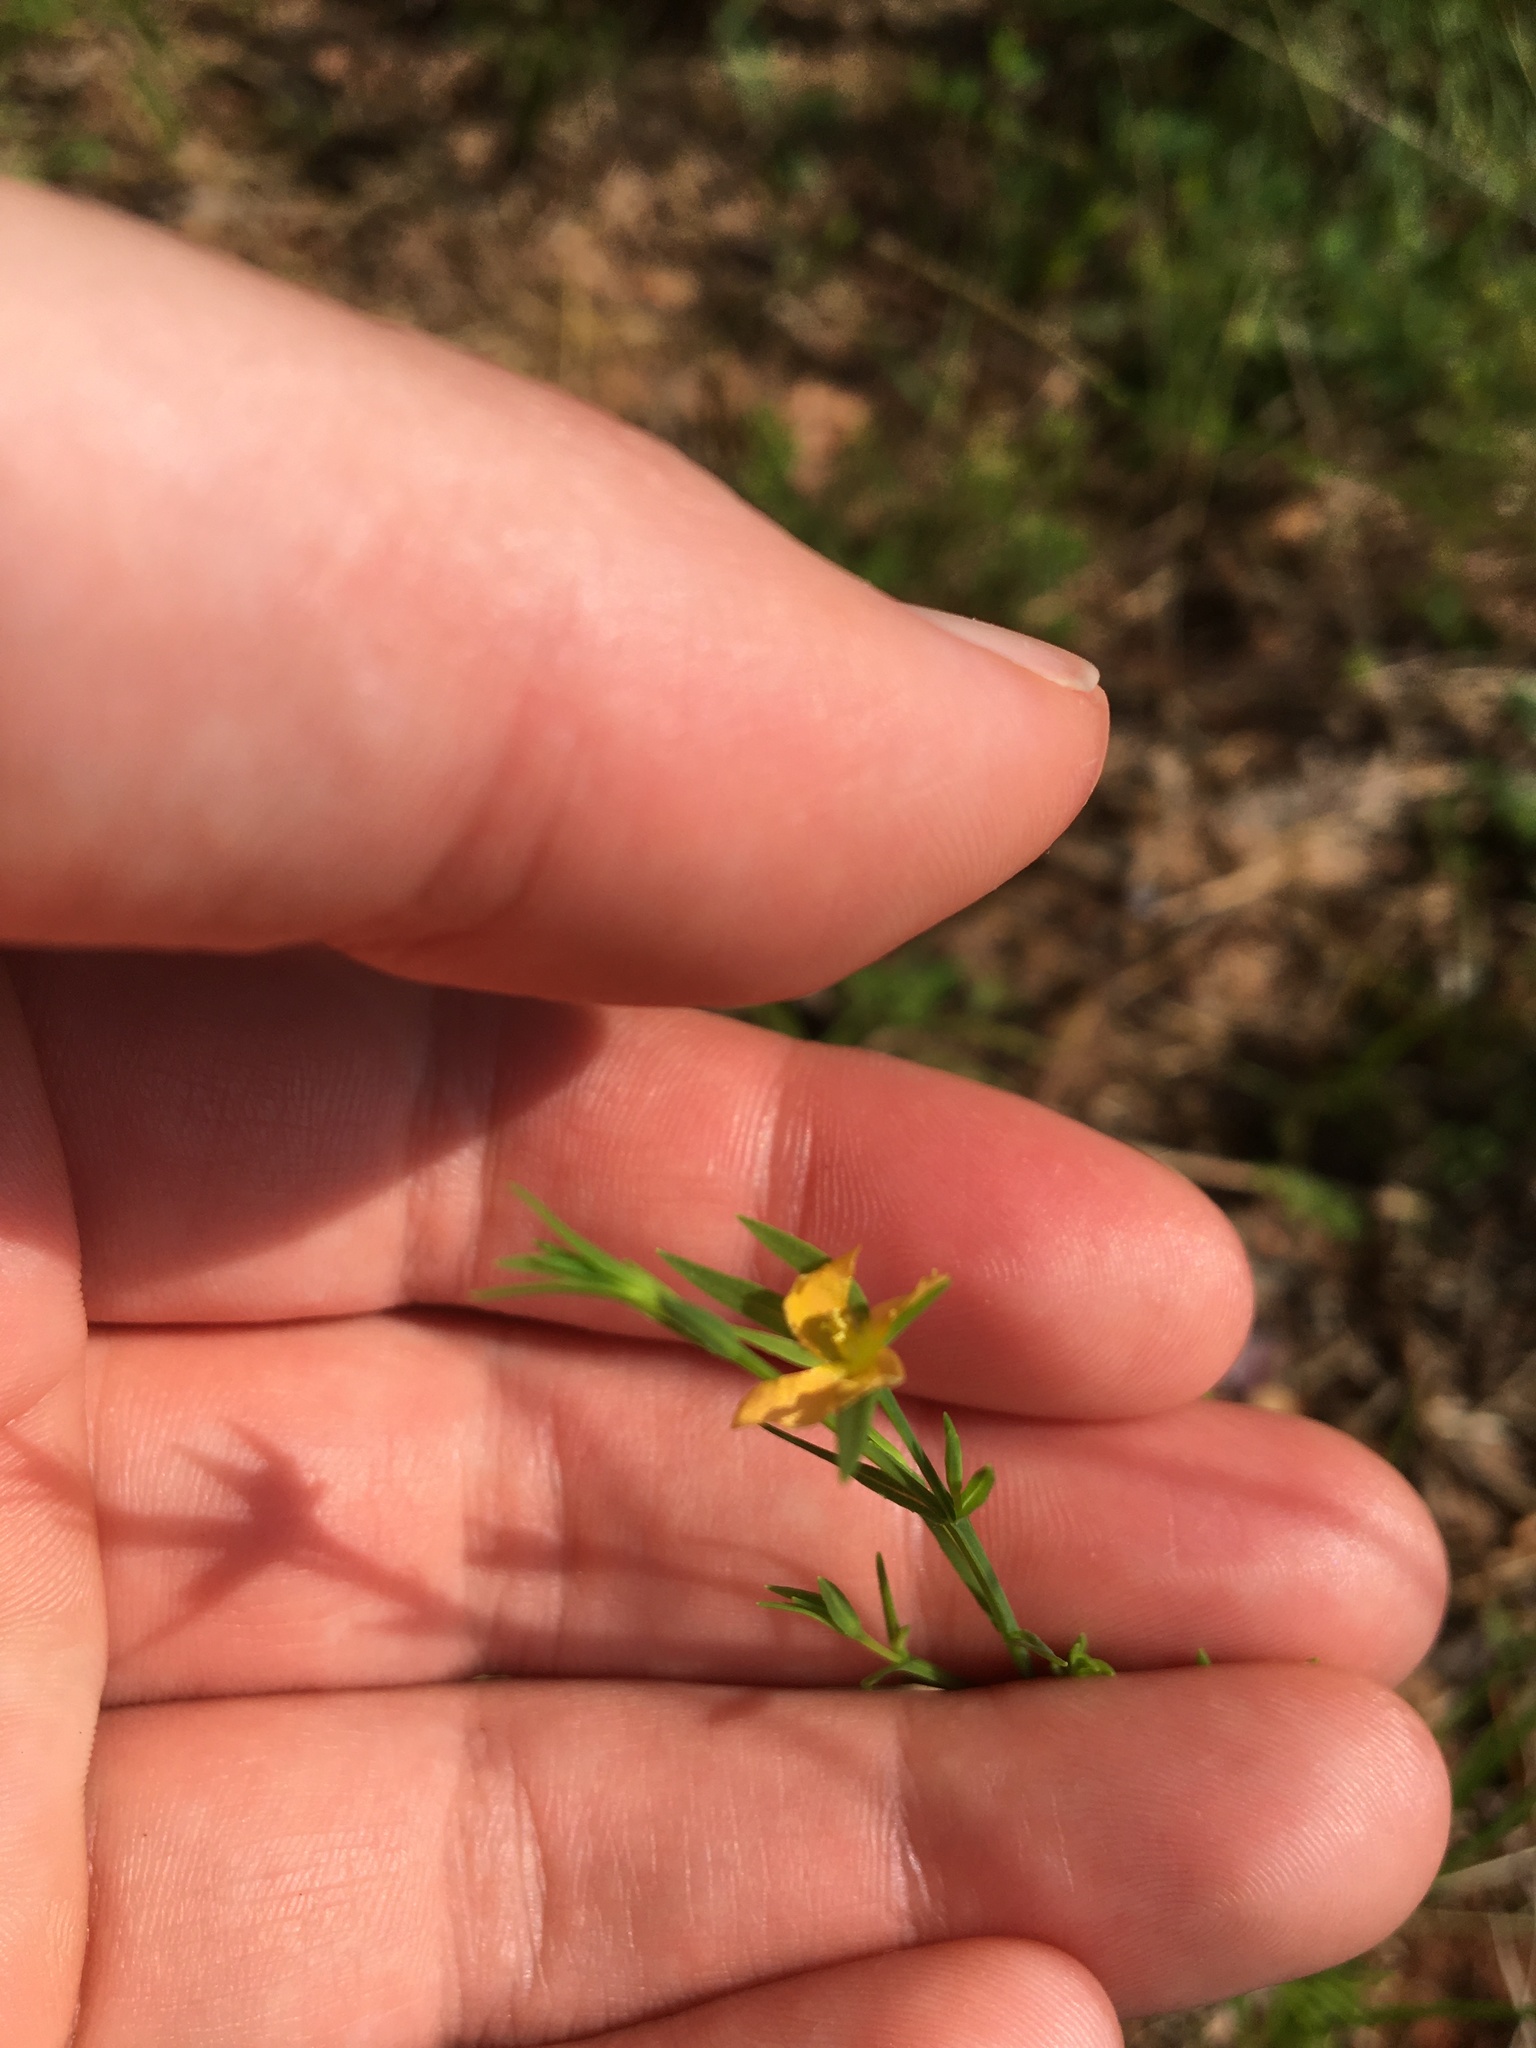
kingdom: Plantae
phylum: Tracheophyta
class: Magnoliopsida
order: Malpighiales
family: Hypericaceae
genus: Hypericum
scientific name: Hypericum drummondii
